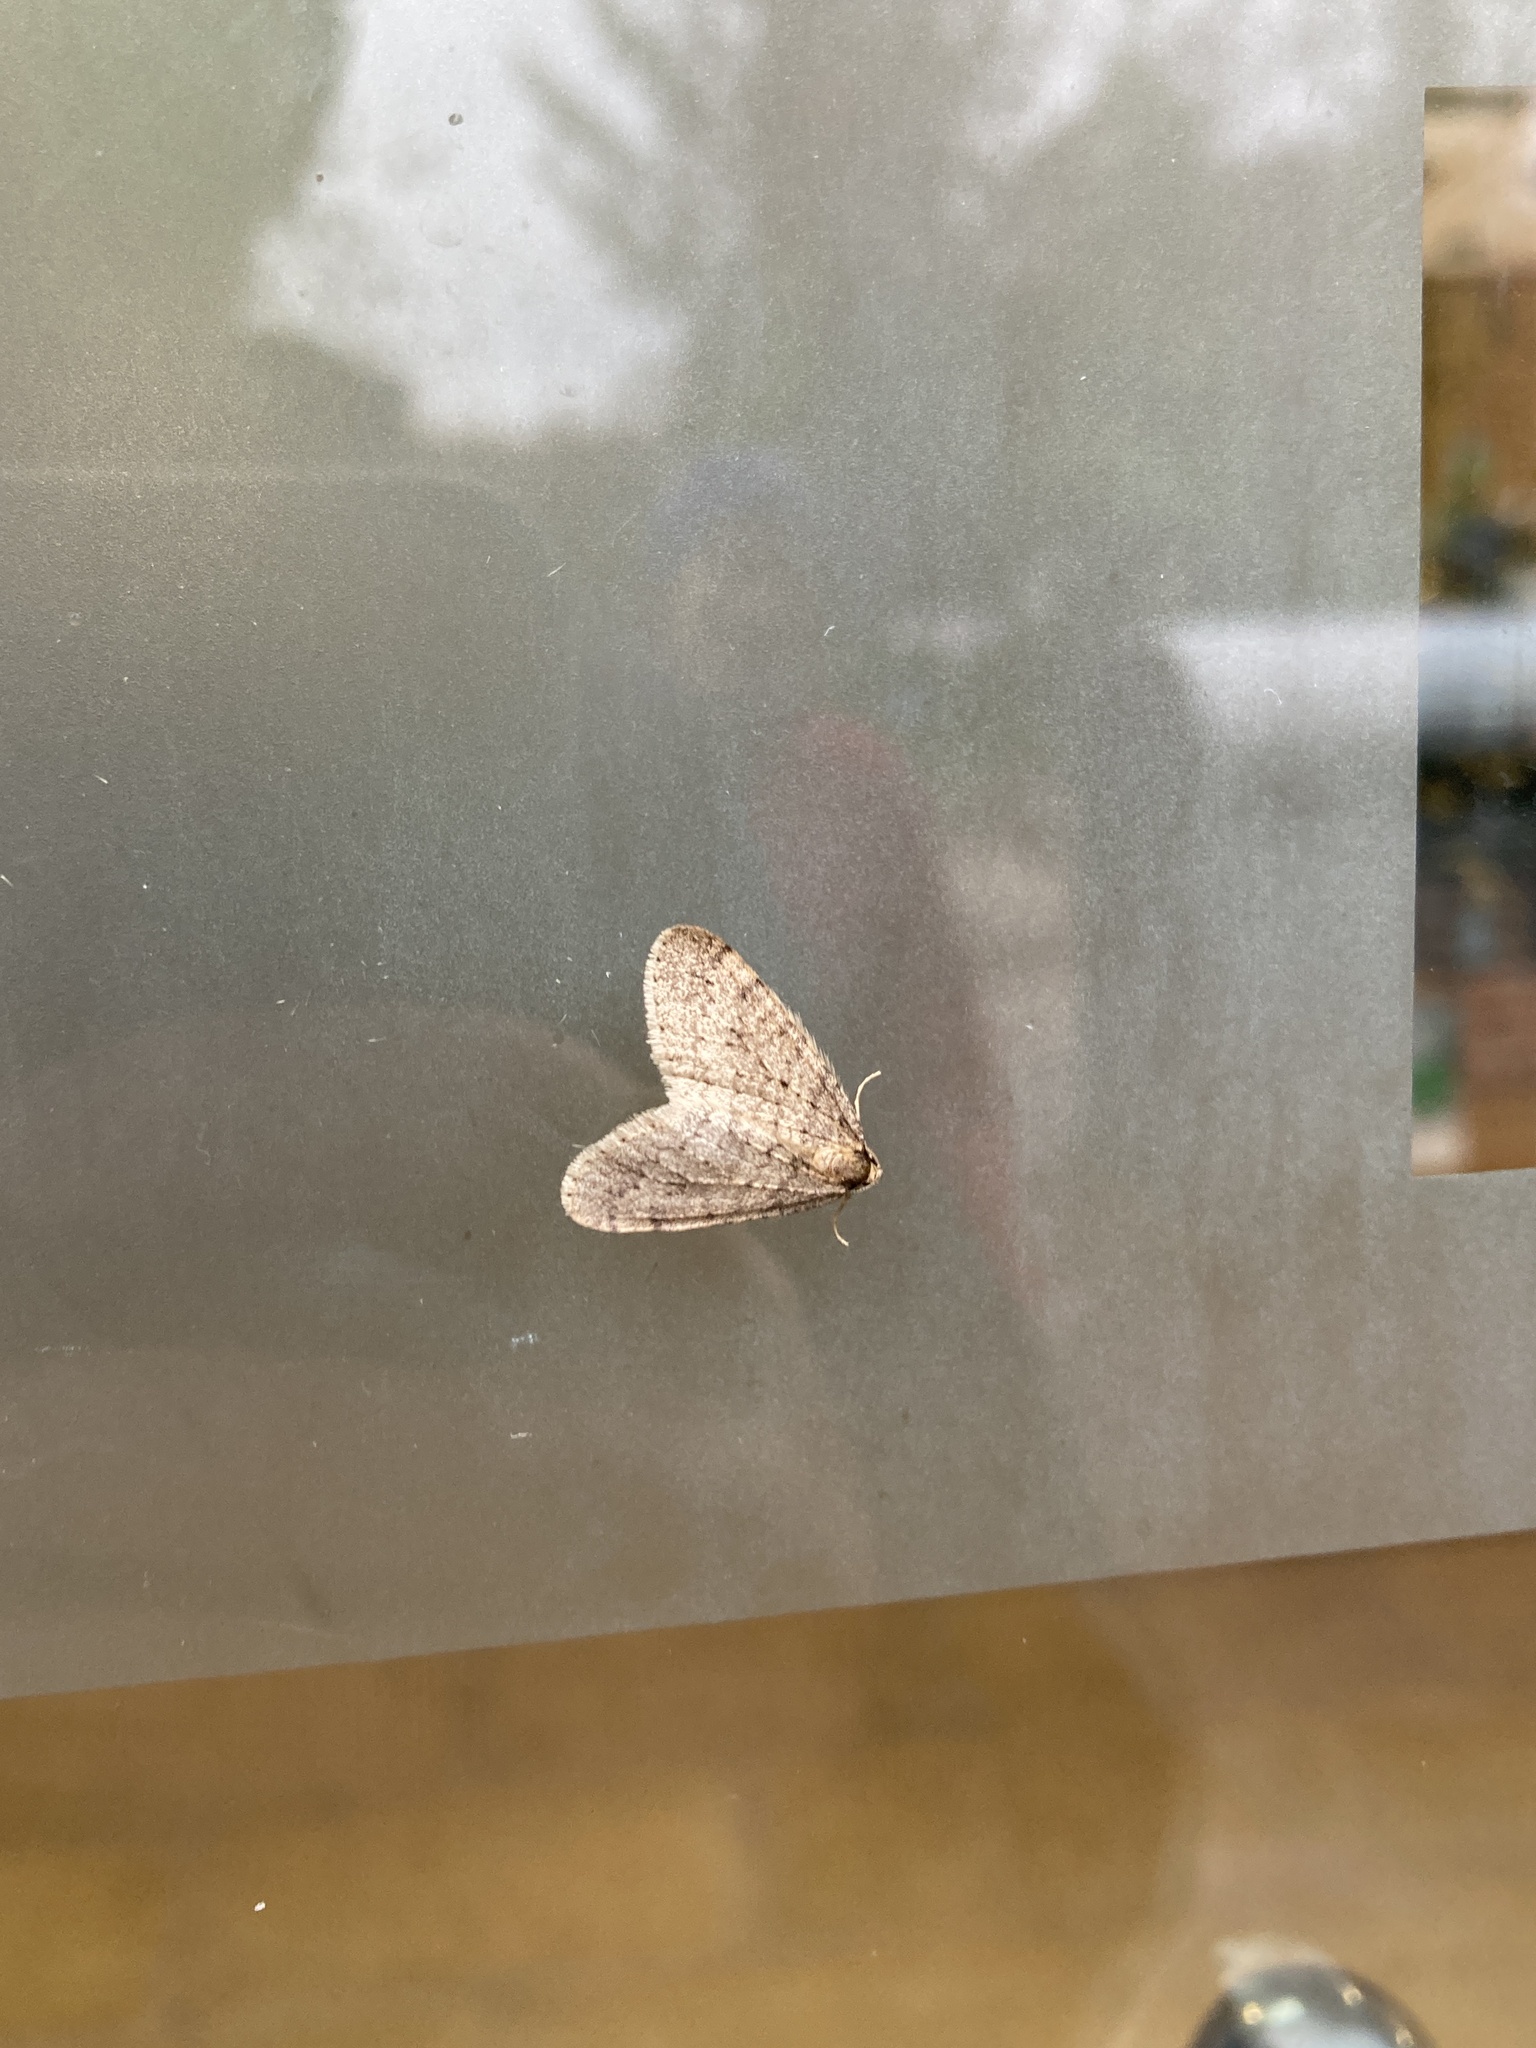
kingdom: Animalia
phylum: Arthropoda
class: Insecta
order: Lepidoptera
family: Geometridae
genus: Operophtera
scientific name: Operophtera brumata
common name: Winter moth
